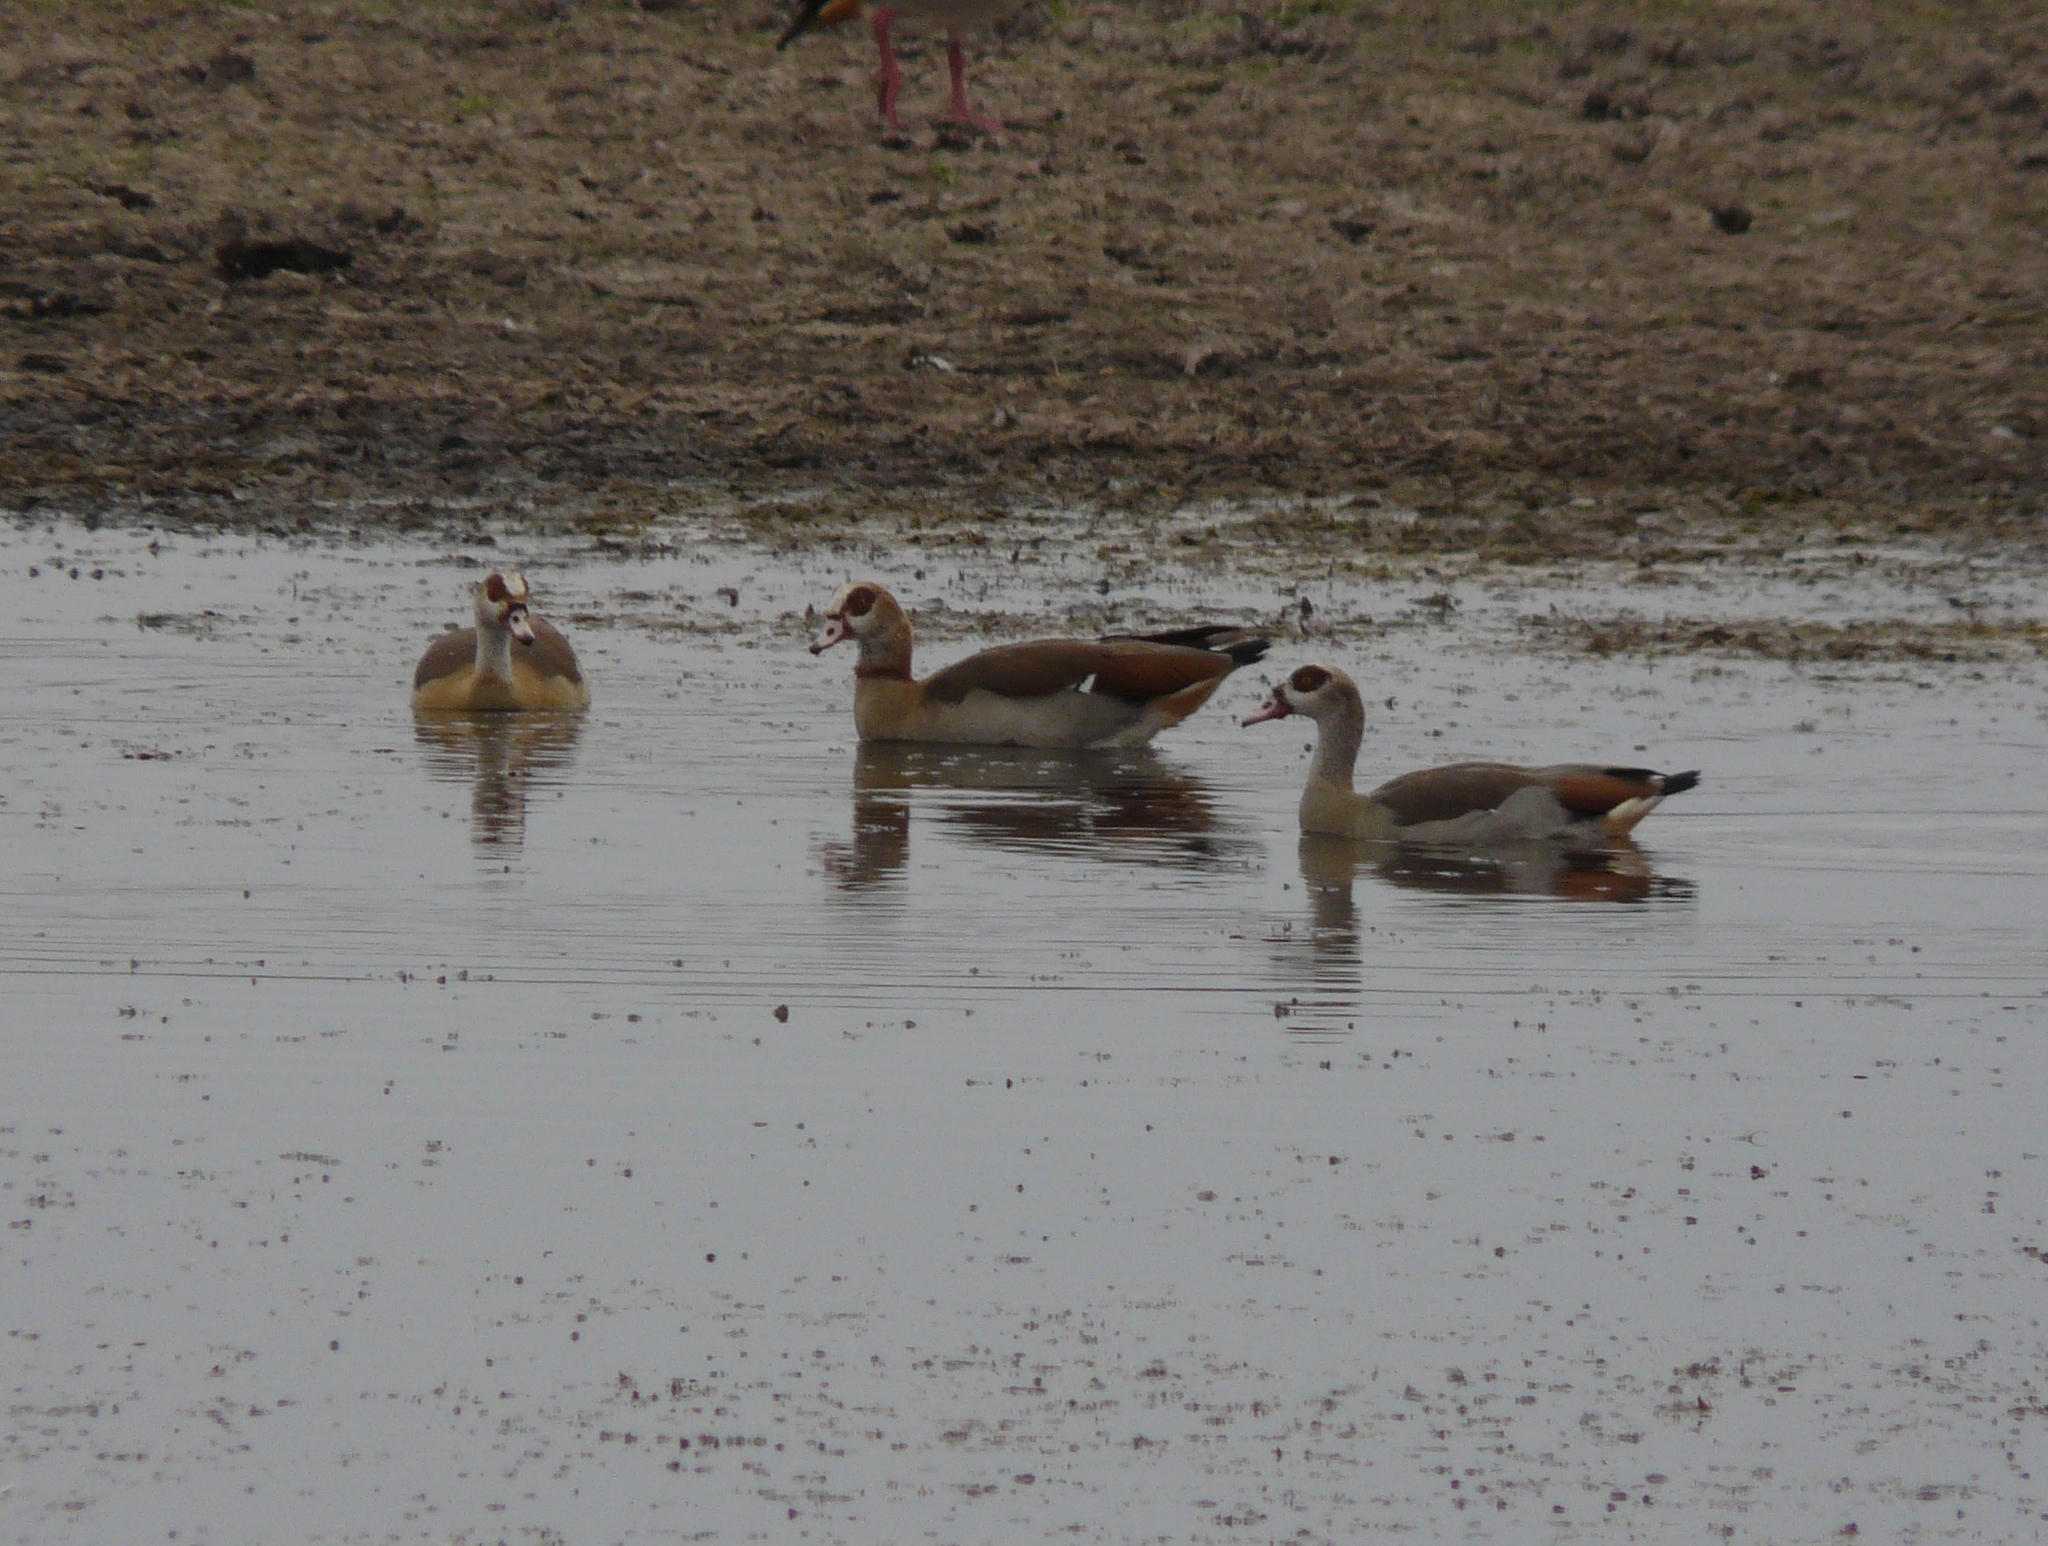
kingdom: Animalia
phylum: Chordata
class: Aves
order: Anseriformes
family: Anatidae
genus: Alopochen
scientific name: Alopochen aegyptiaca
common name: Egyptian goose
